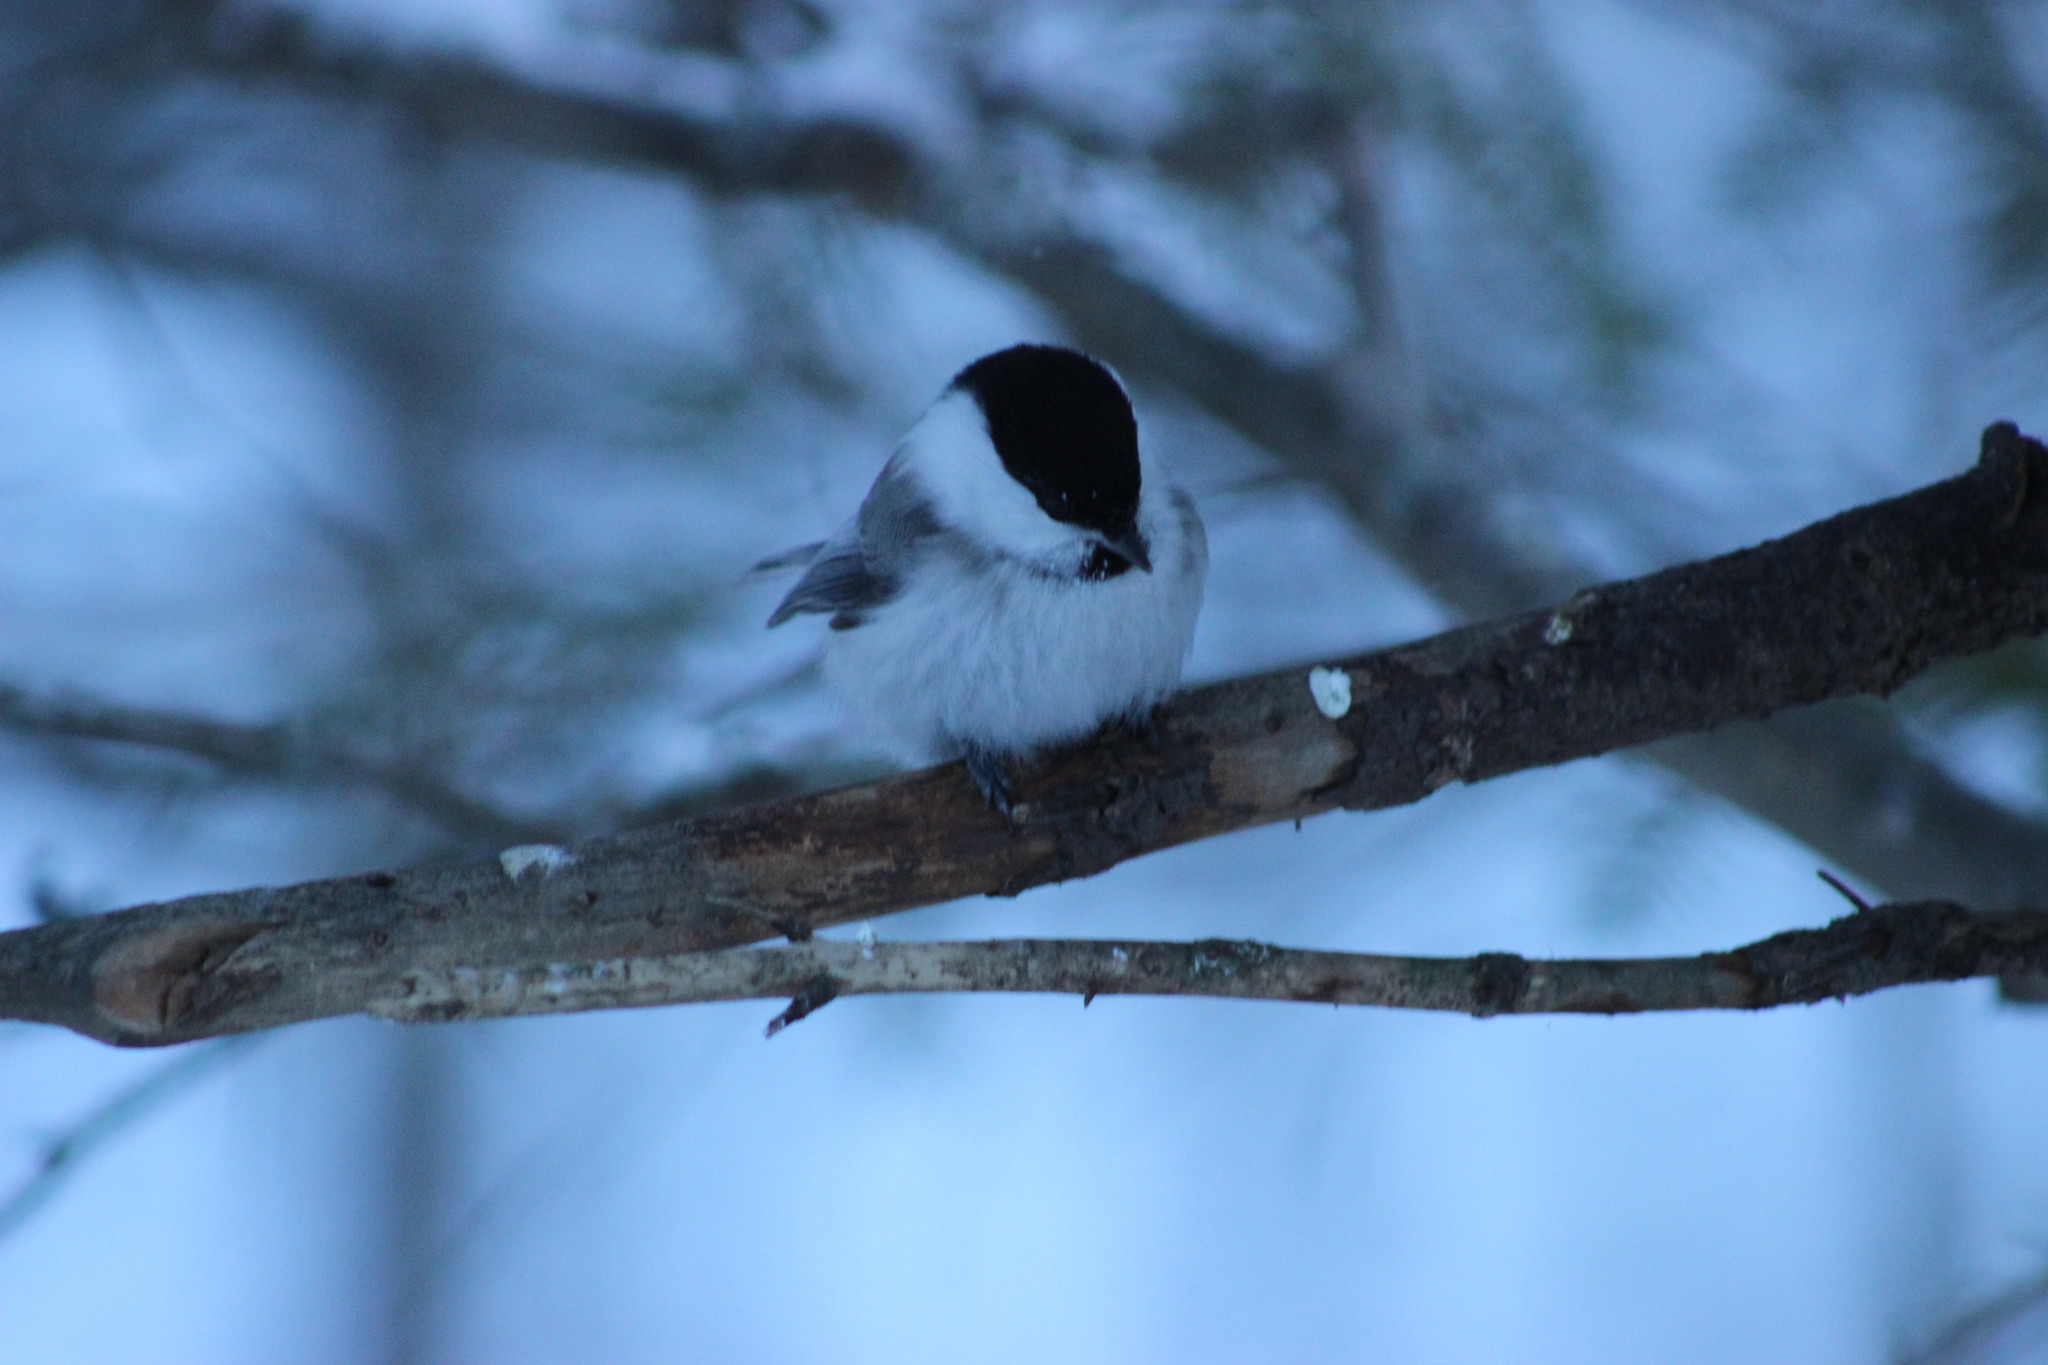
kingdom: Animalia
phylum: Chordata
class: Aves
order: Passeriformes
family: Paridae
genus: Poecile
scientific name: Poecile montanus
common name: Willow tit
